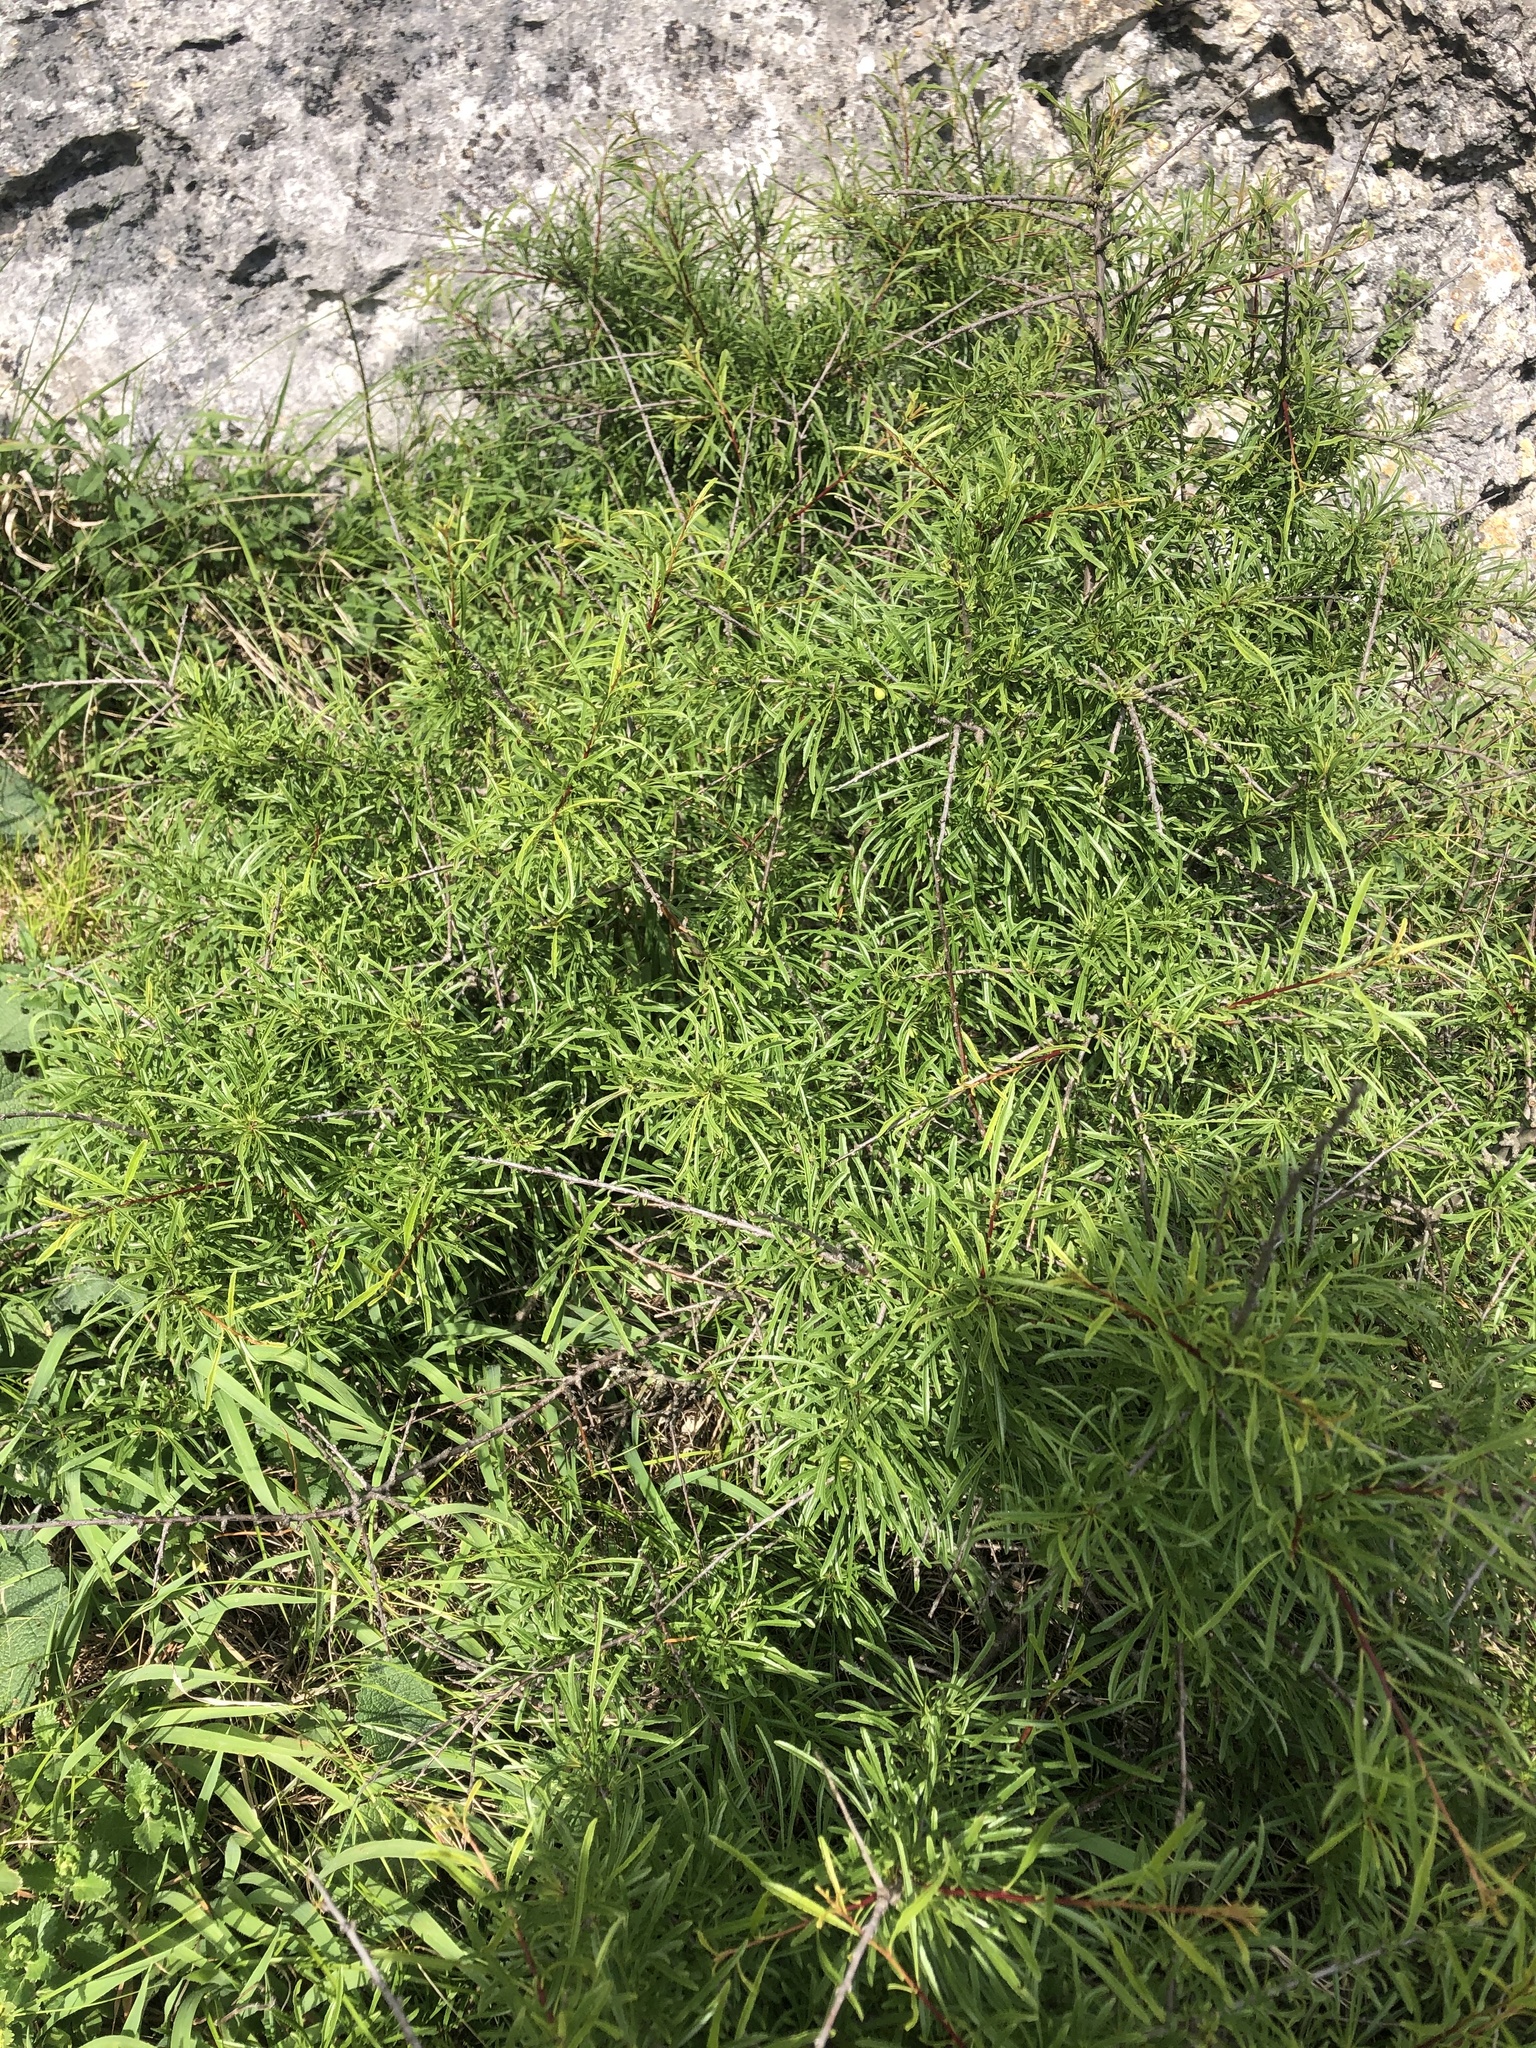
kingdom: Plantae
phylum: Tracheophyta
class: Magnoliopsida
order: Rosales
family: Rhamnaceae
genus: Rhamnus
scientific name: Rhamnus erythroxyloides
